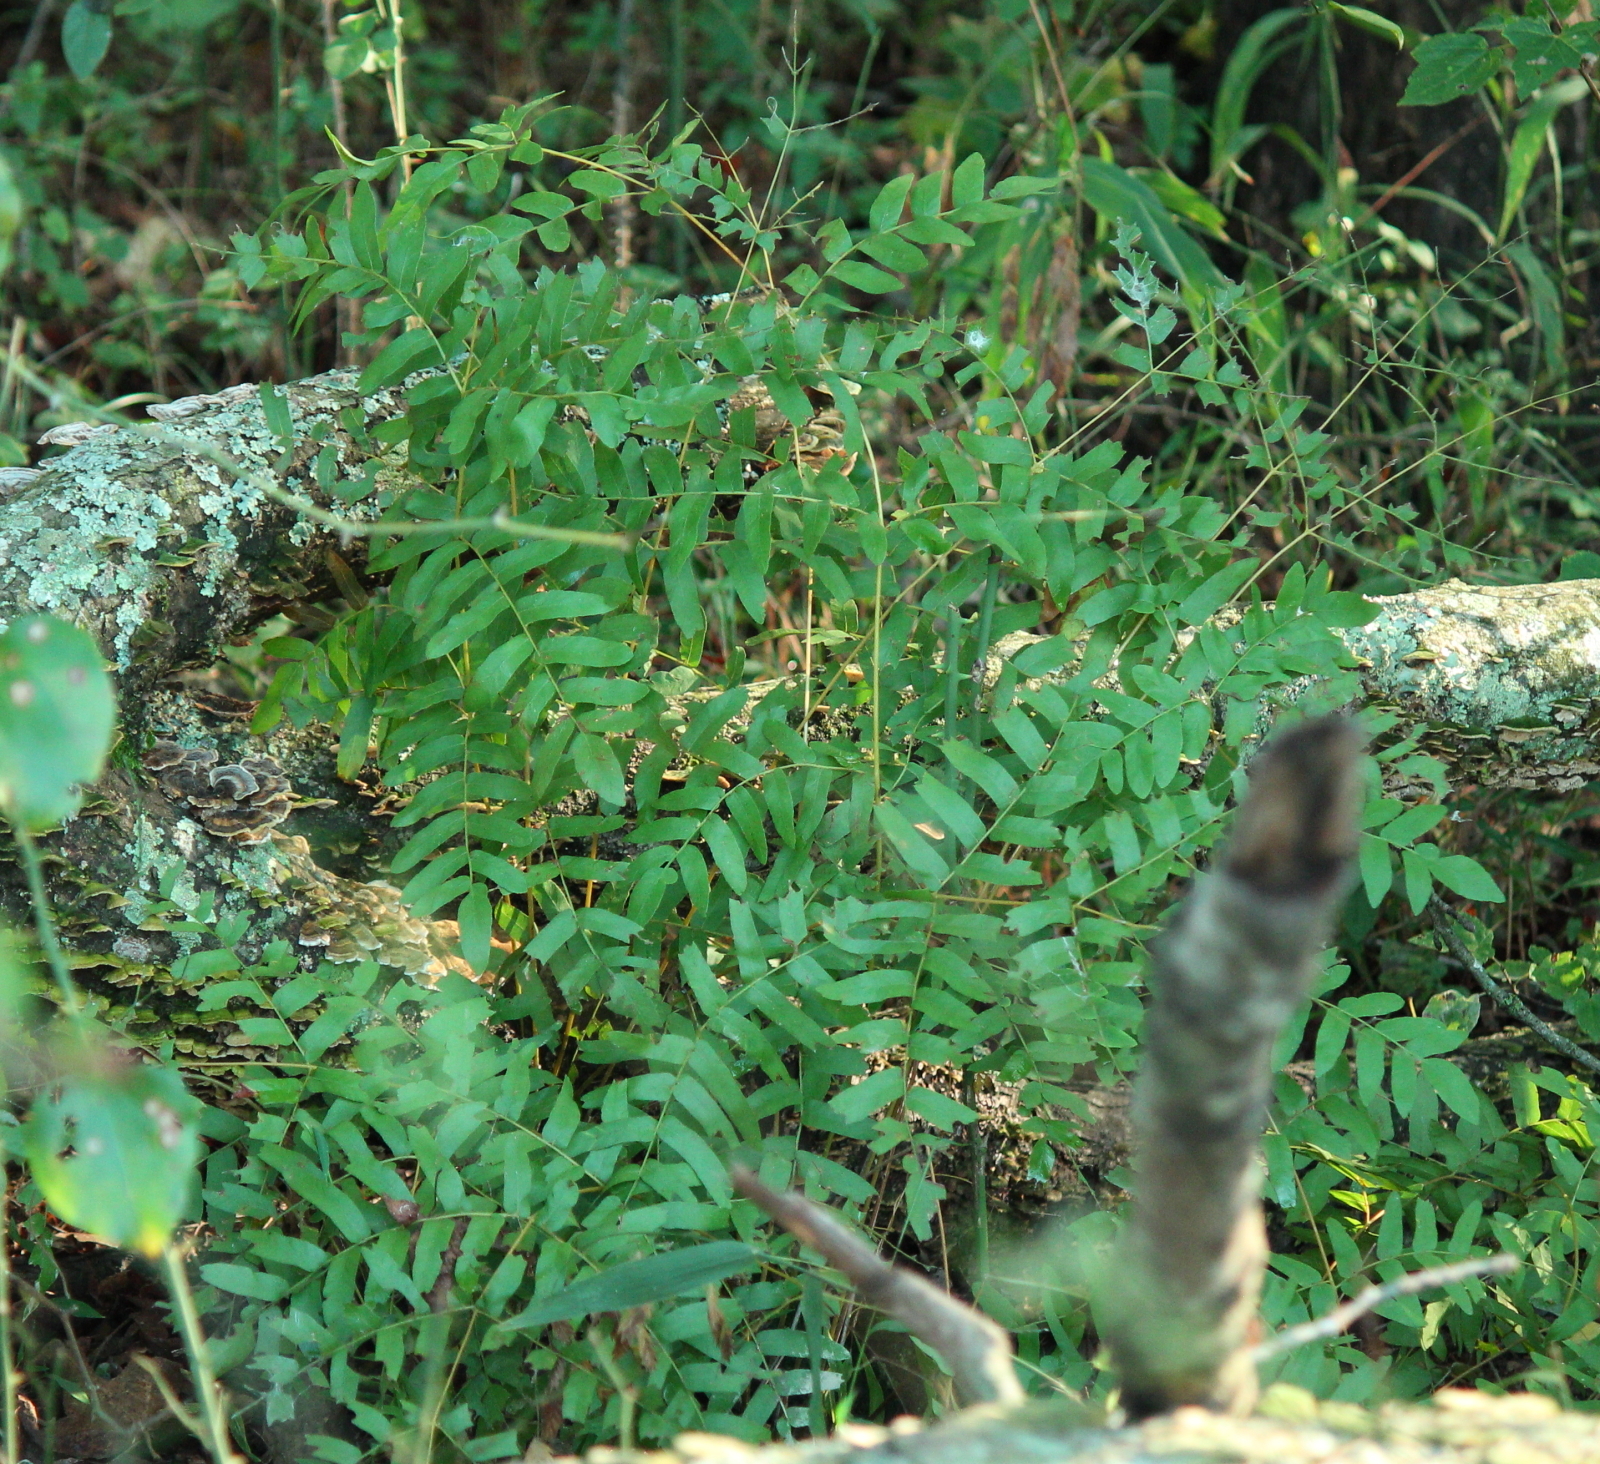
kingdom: Plantae
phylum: Tracheophyta
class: Polypodiopsida
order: Osmundales
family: Osmundaceae
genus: Osmunda
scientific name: Osmunda spectabilis
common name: American royal fern
